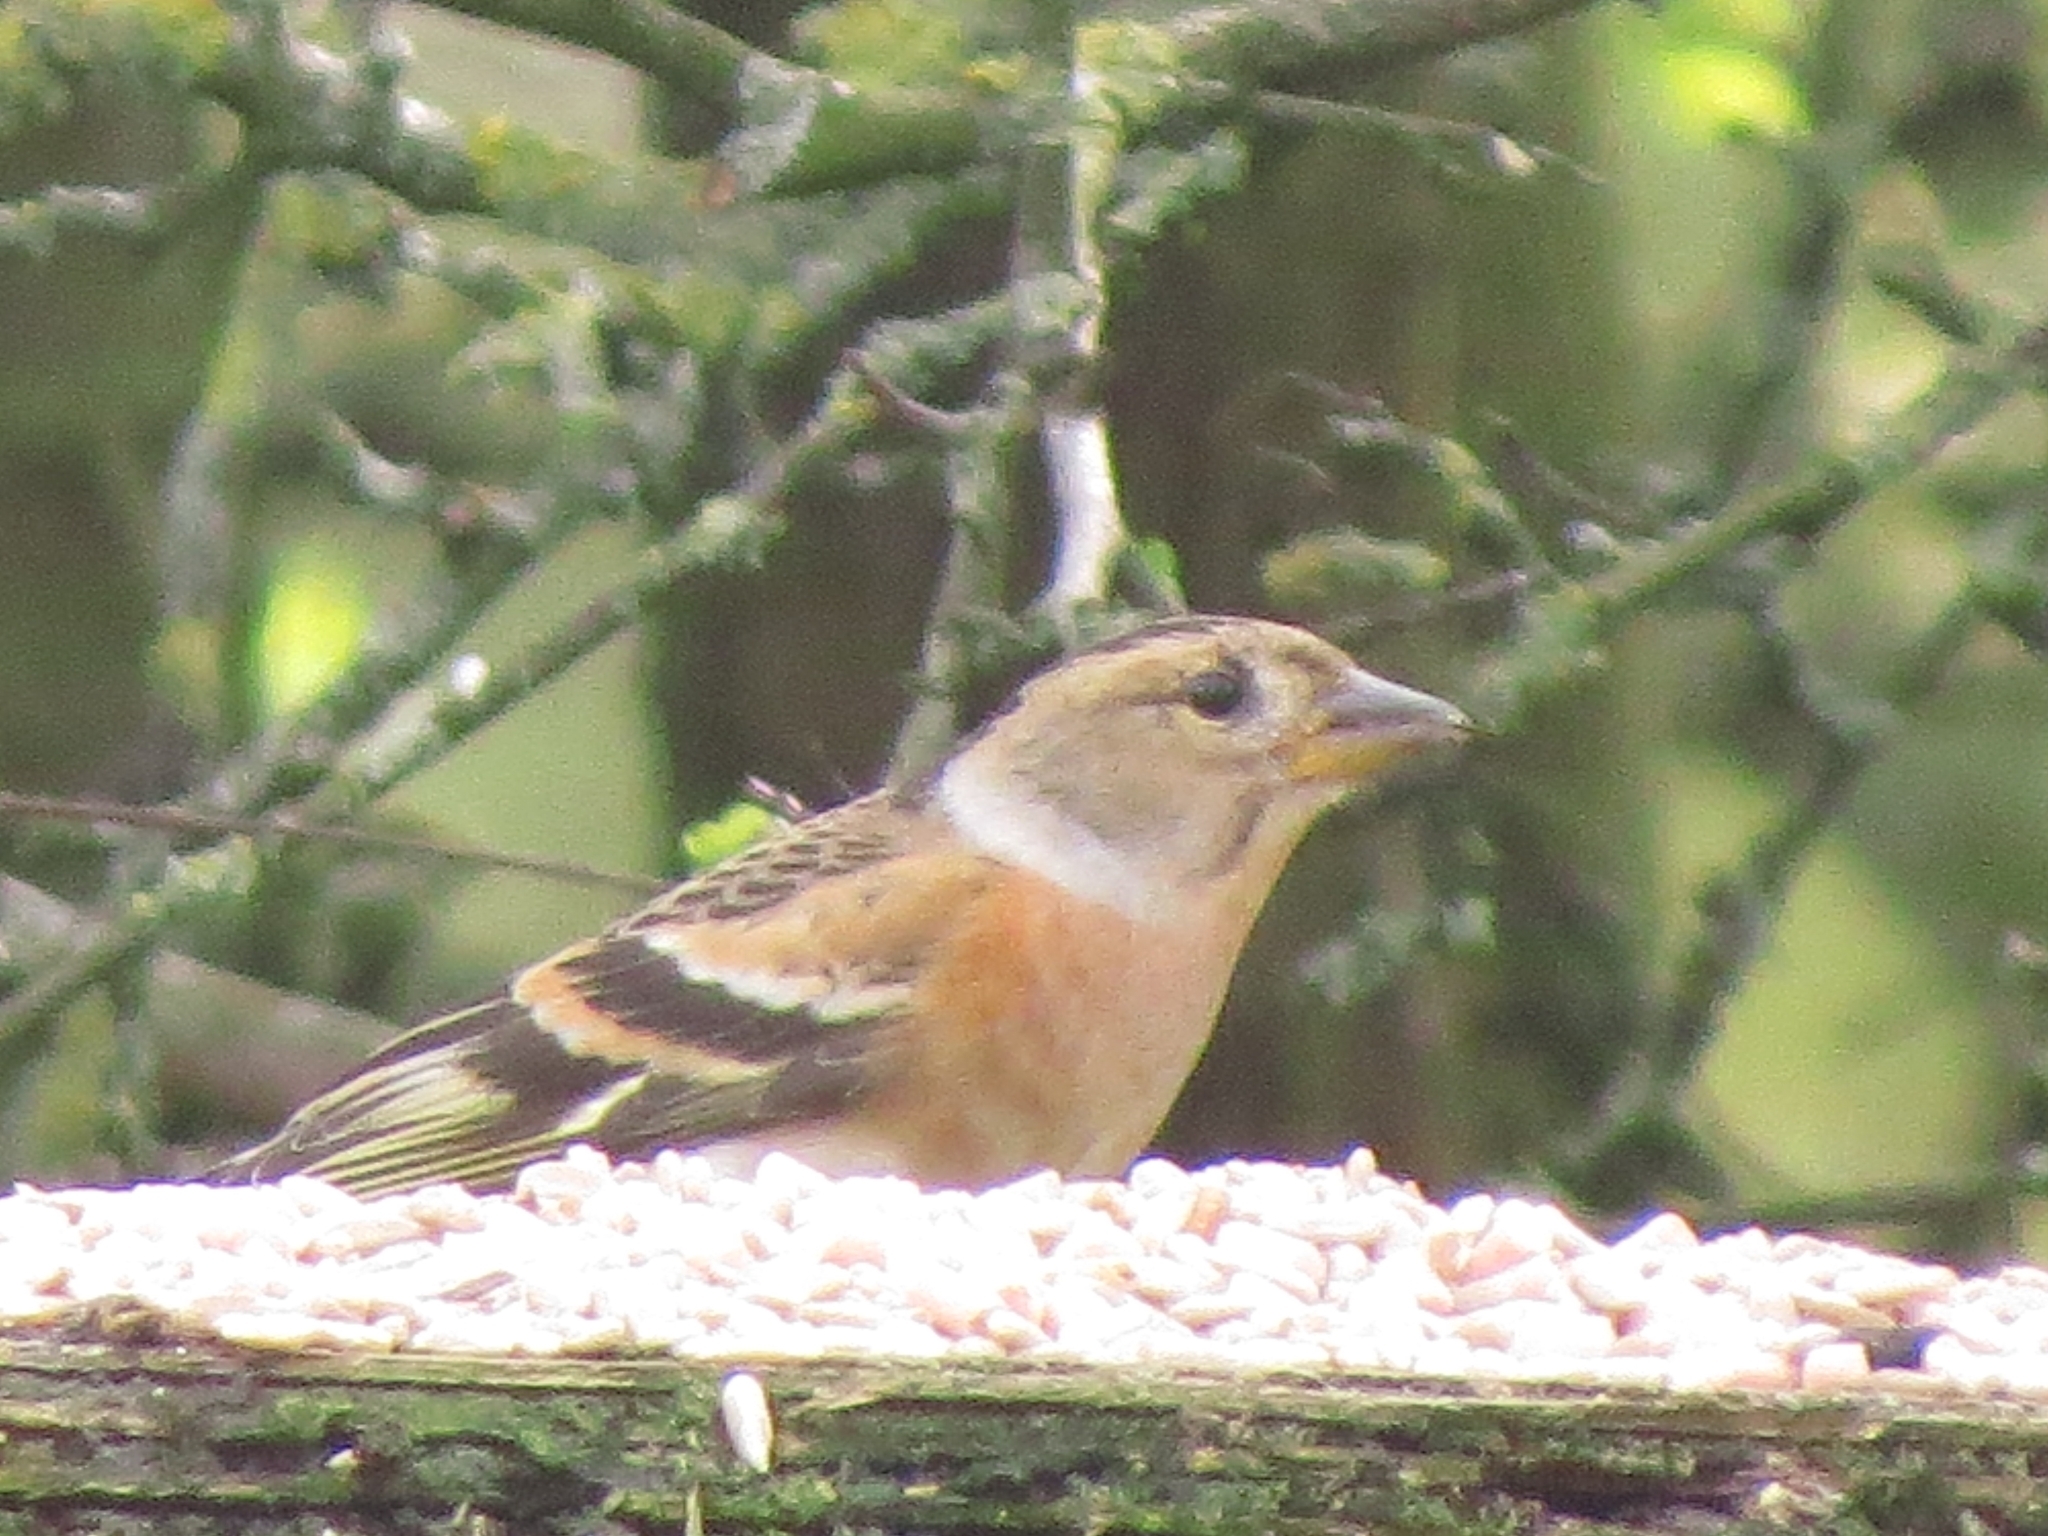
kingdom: Animalia
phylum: Chordata
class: Aves
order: Passeriformes
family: Fringillidae
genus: Fringilla
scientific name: Fringilla montifringilla
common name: Brambling
